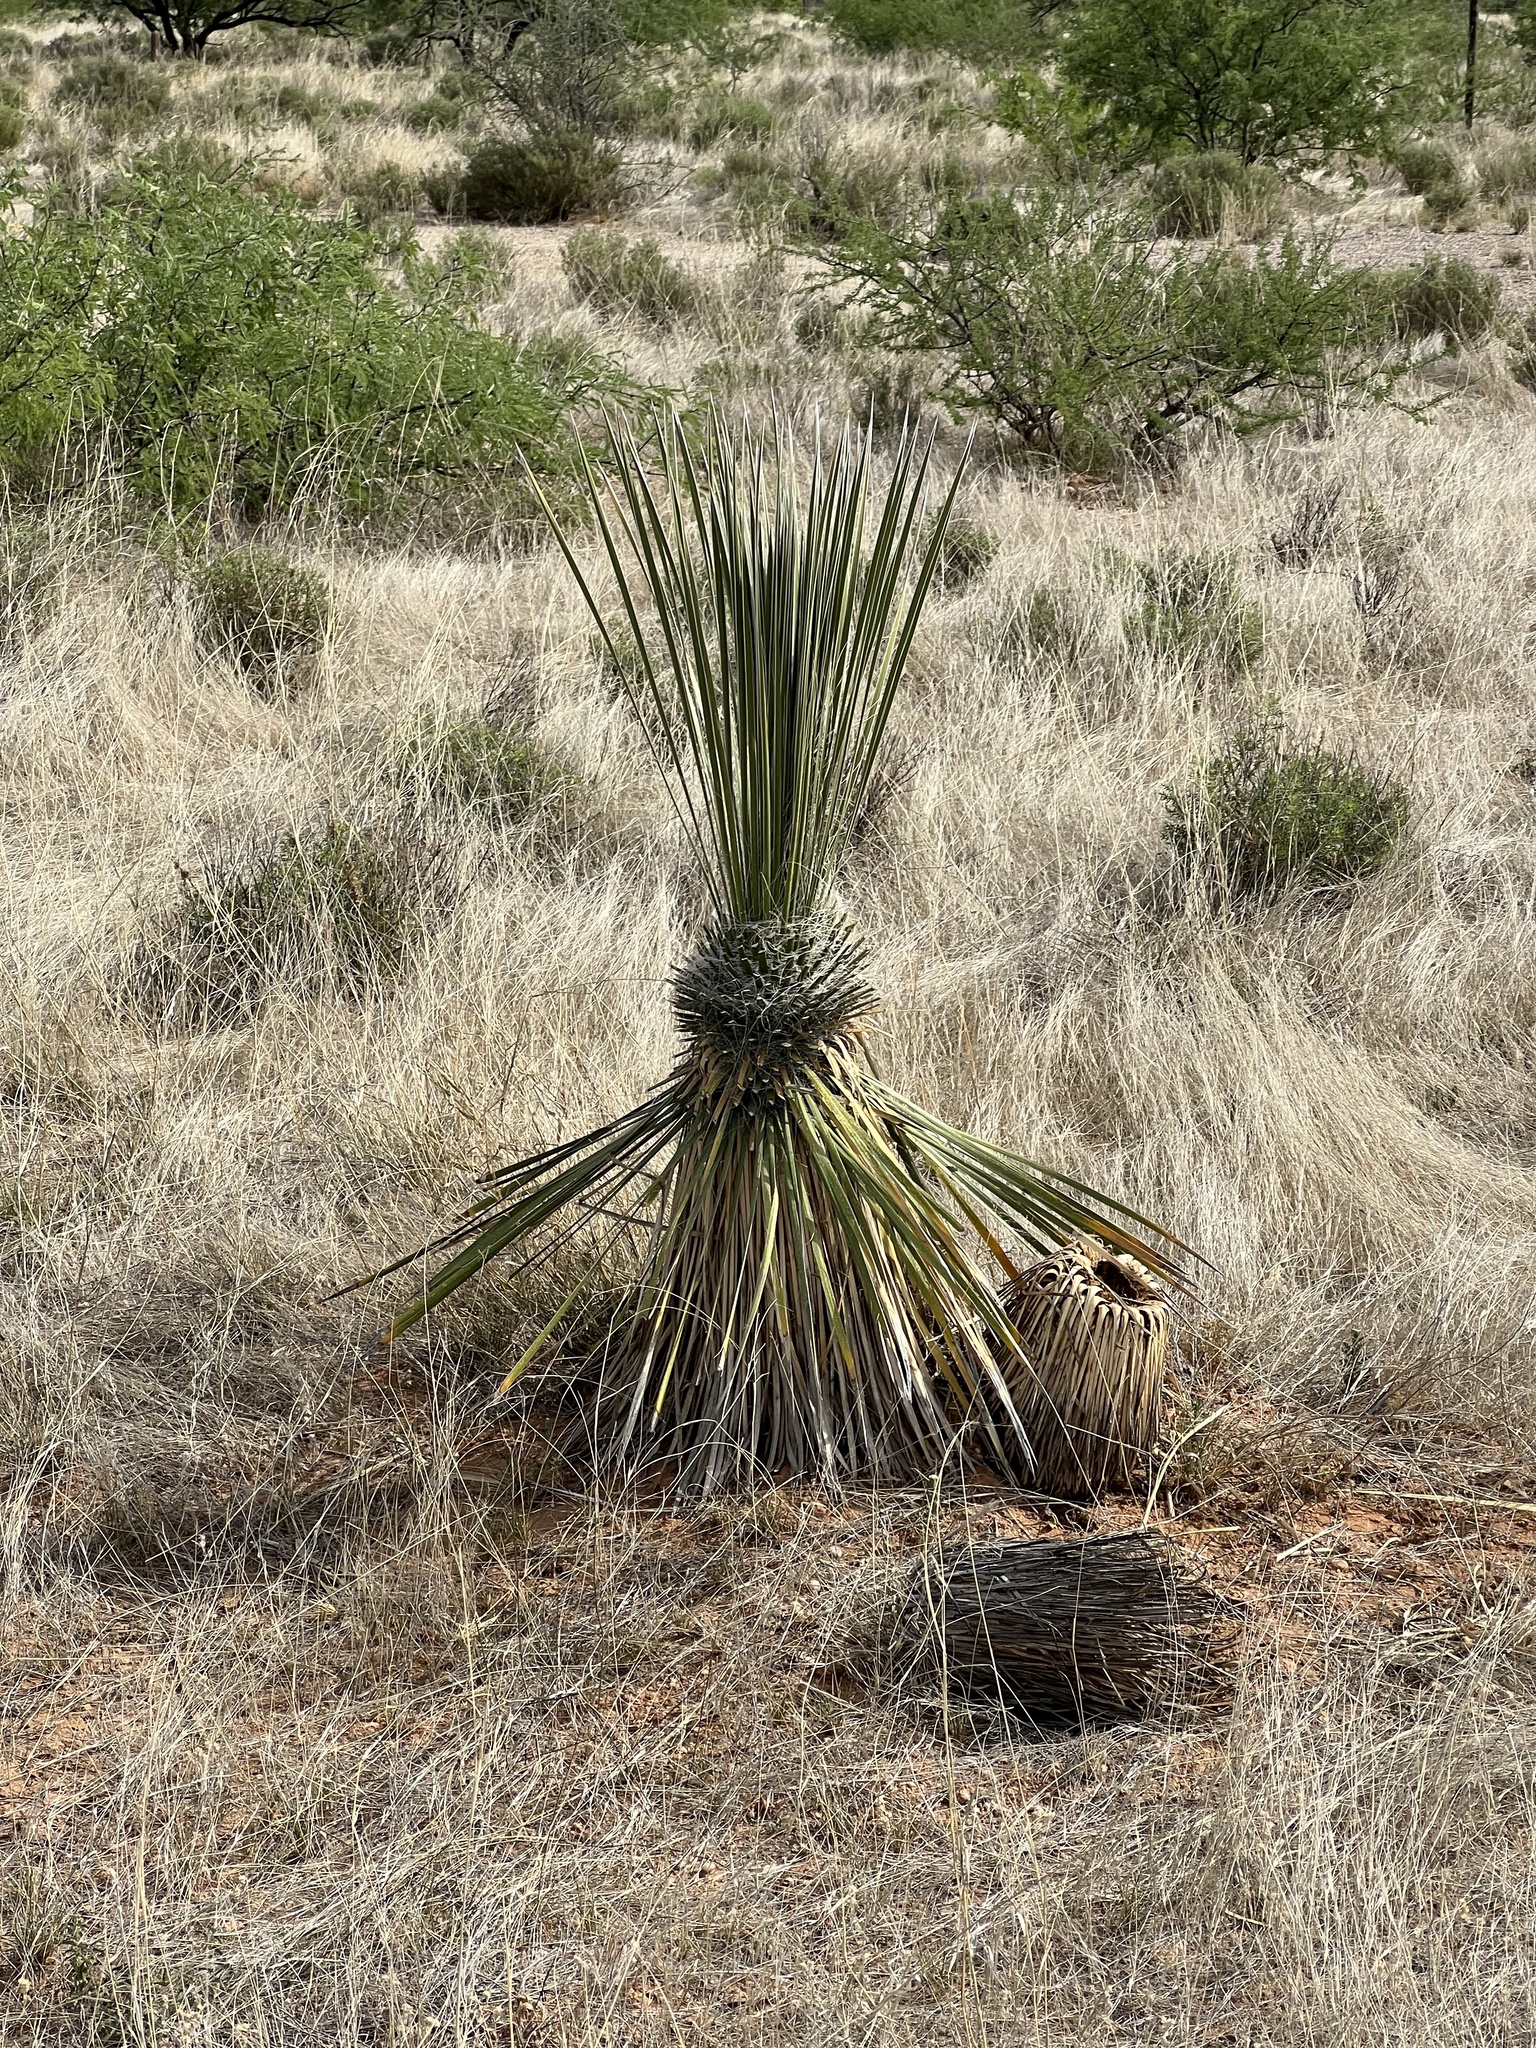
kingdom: Plantae
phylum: Tracheophyta
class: Liliopsida
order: Asparagales
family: Asparagaceae
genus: Yucca
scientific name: Yucca elata
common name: Palmella
